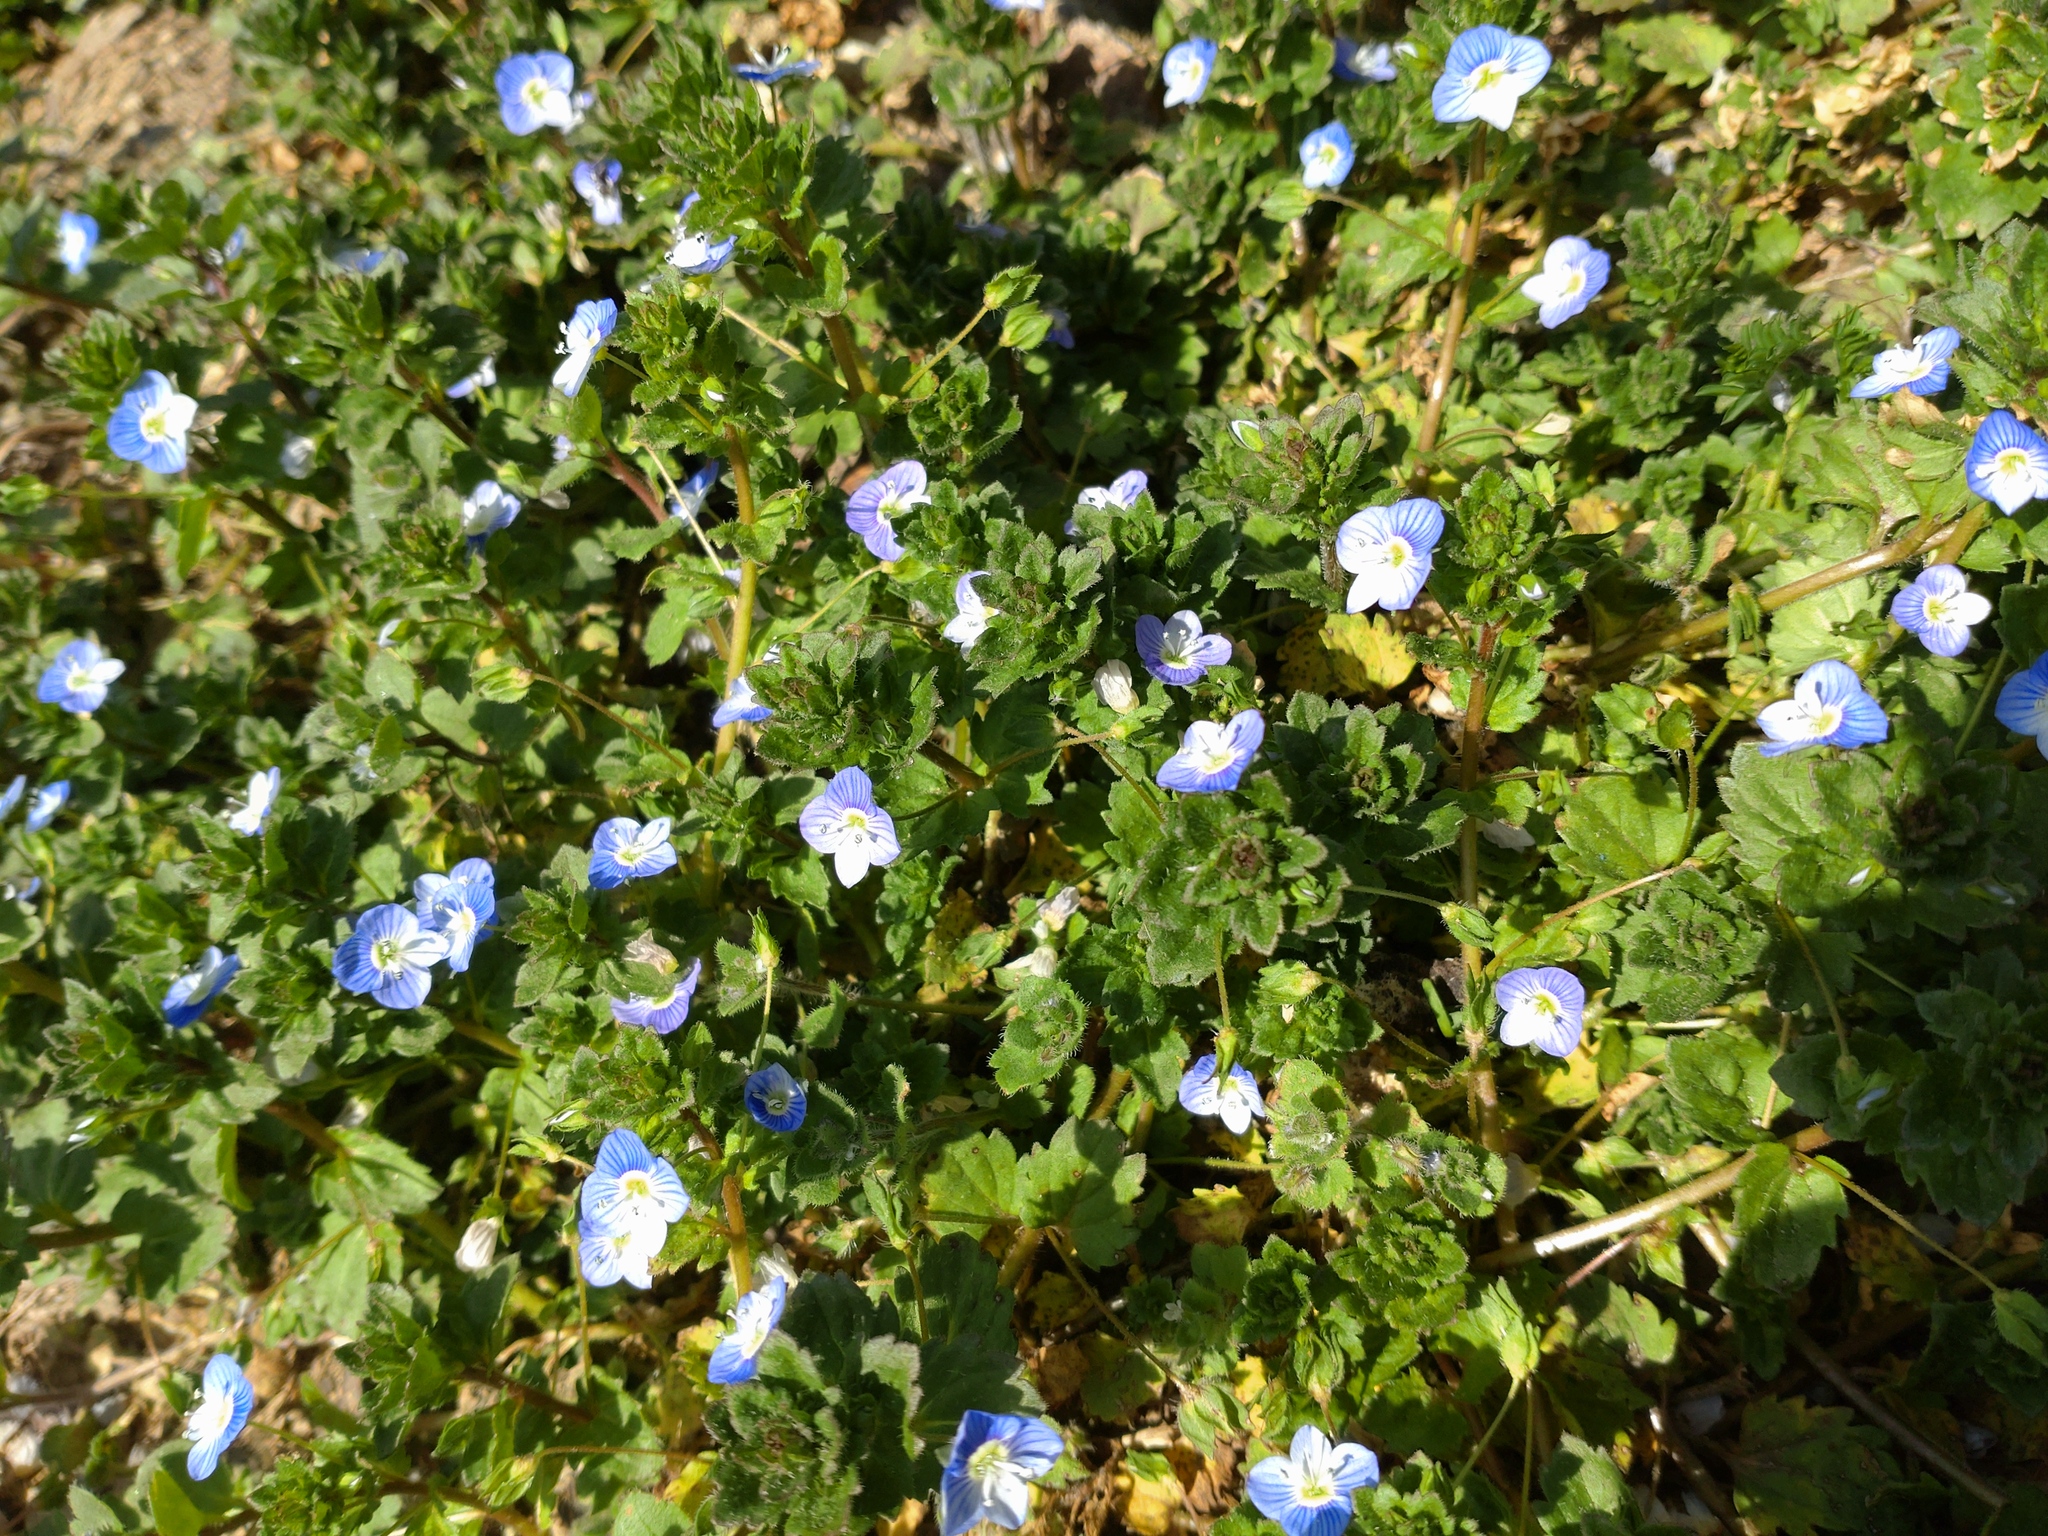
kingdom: Plantae
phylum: Tracheophyta
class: Magnoliopsida
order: Lamiales
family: Plantaginaceae
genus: Veronica
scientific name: Veronica persica
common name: Common field-speedwell
